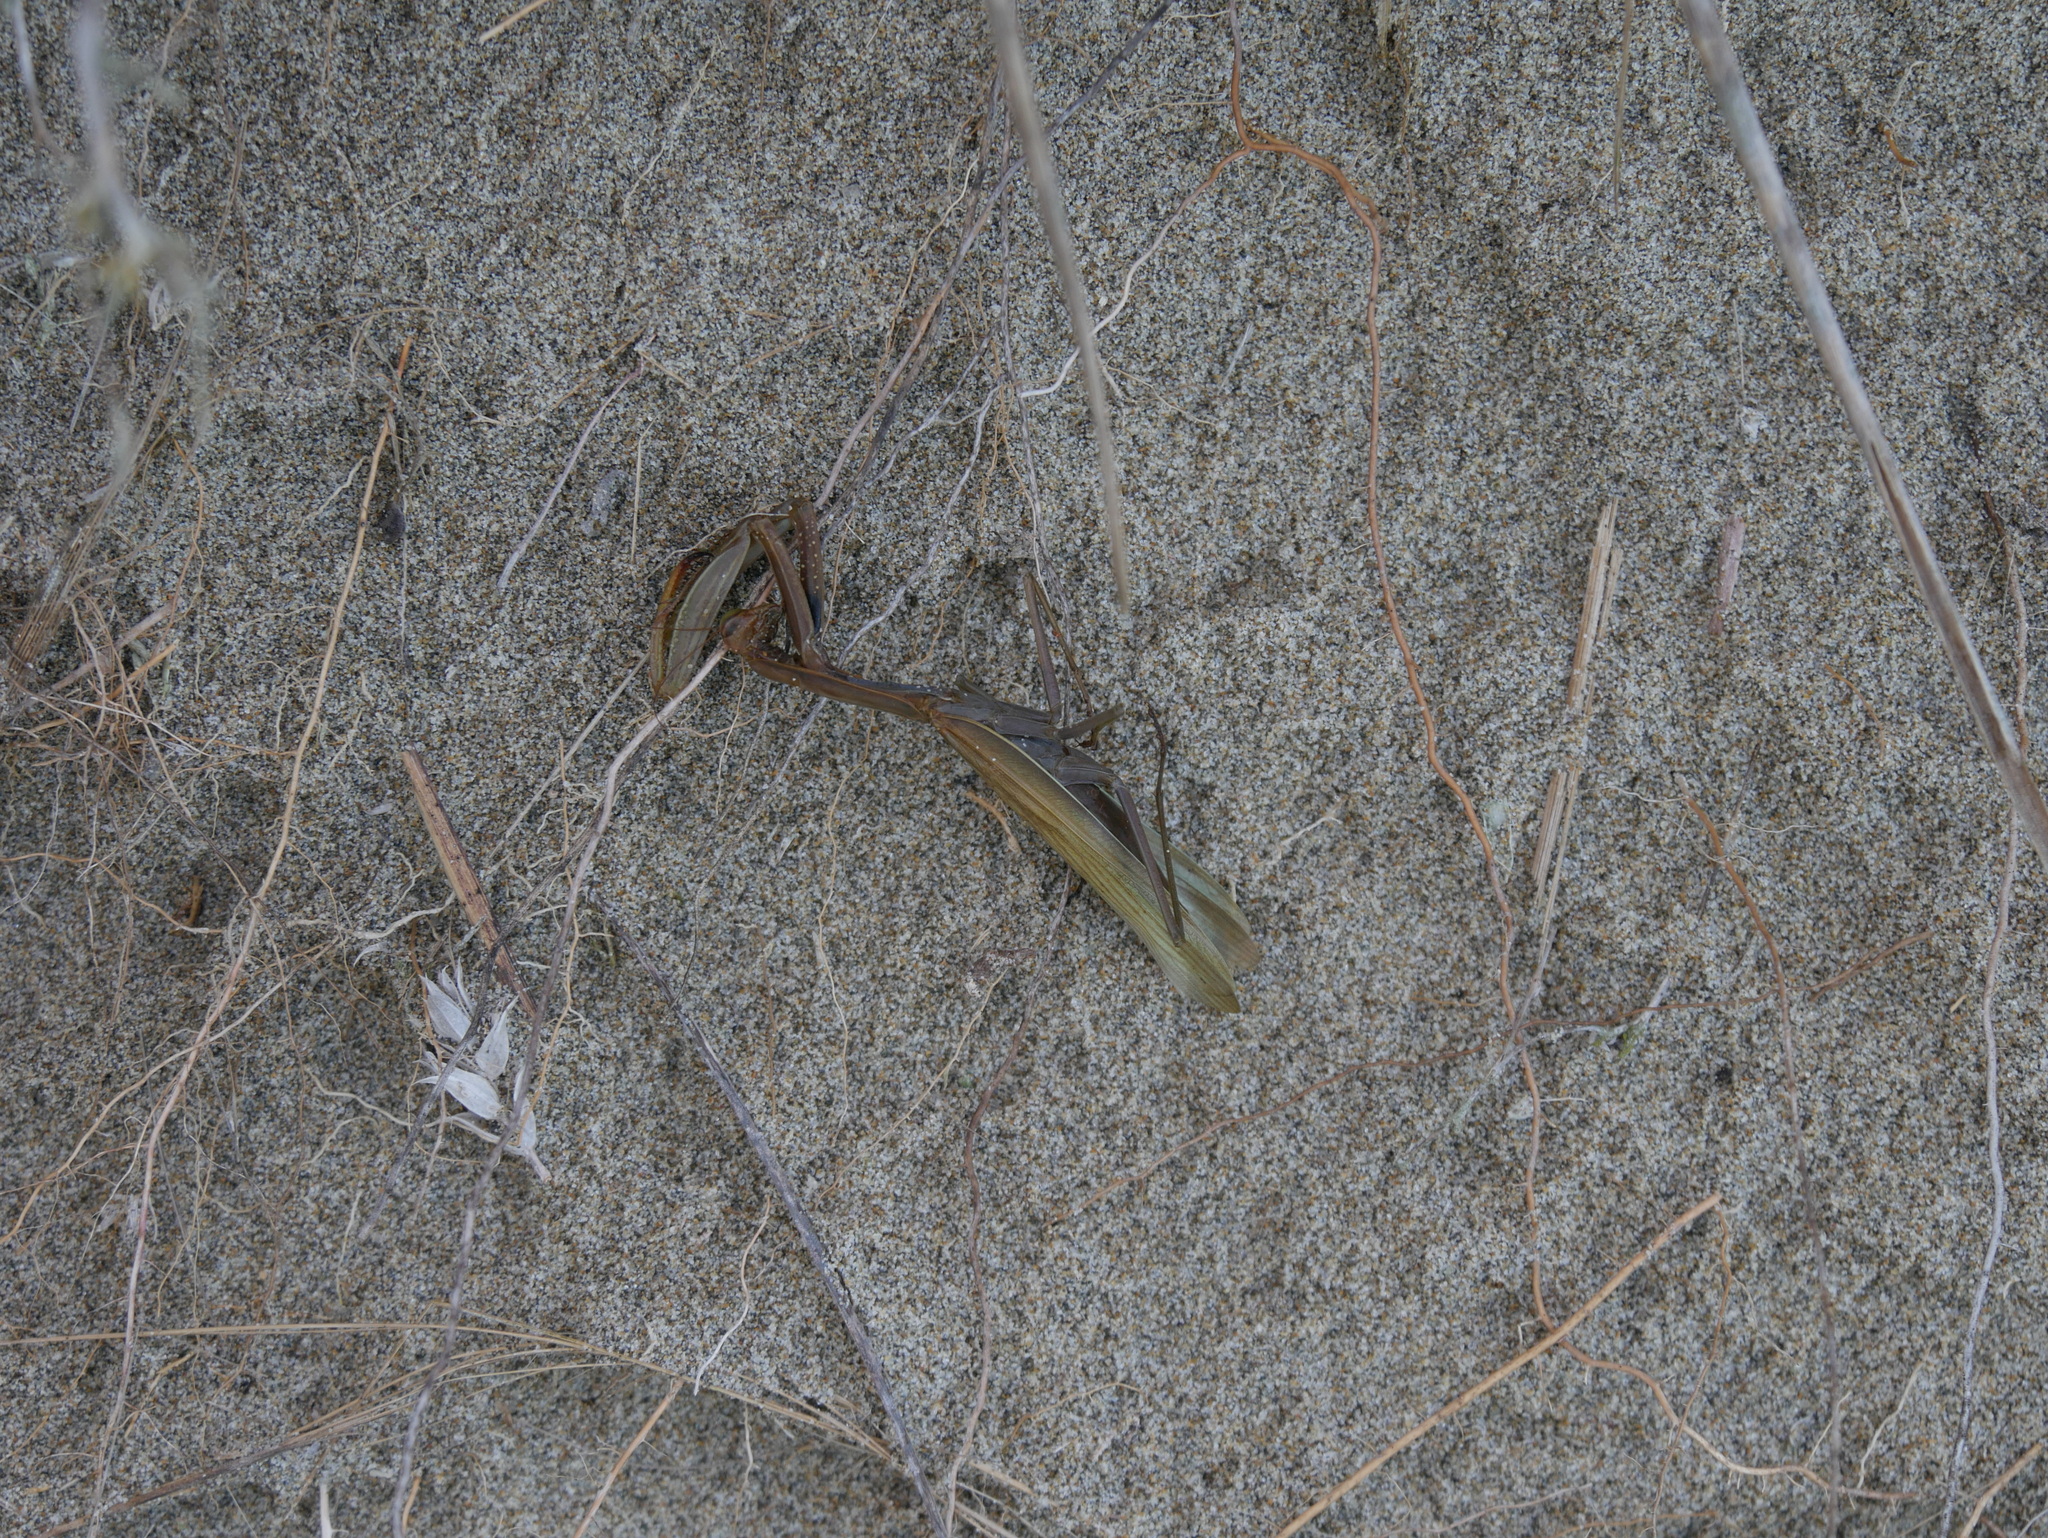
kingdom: Animalia
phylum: Arthropoda
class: Insecta
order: Mantodea
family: Mantidae
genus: Mantis
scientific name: Mantis religiosa
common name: Praying mantis
